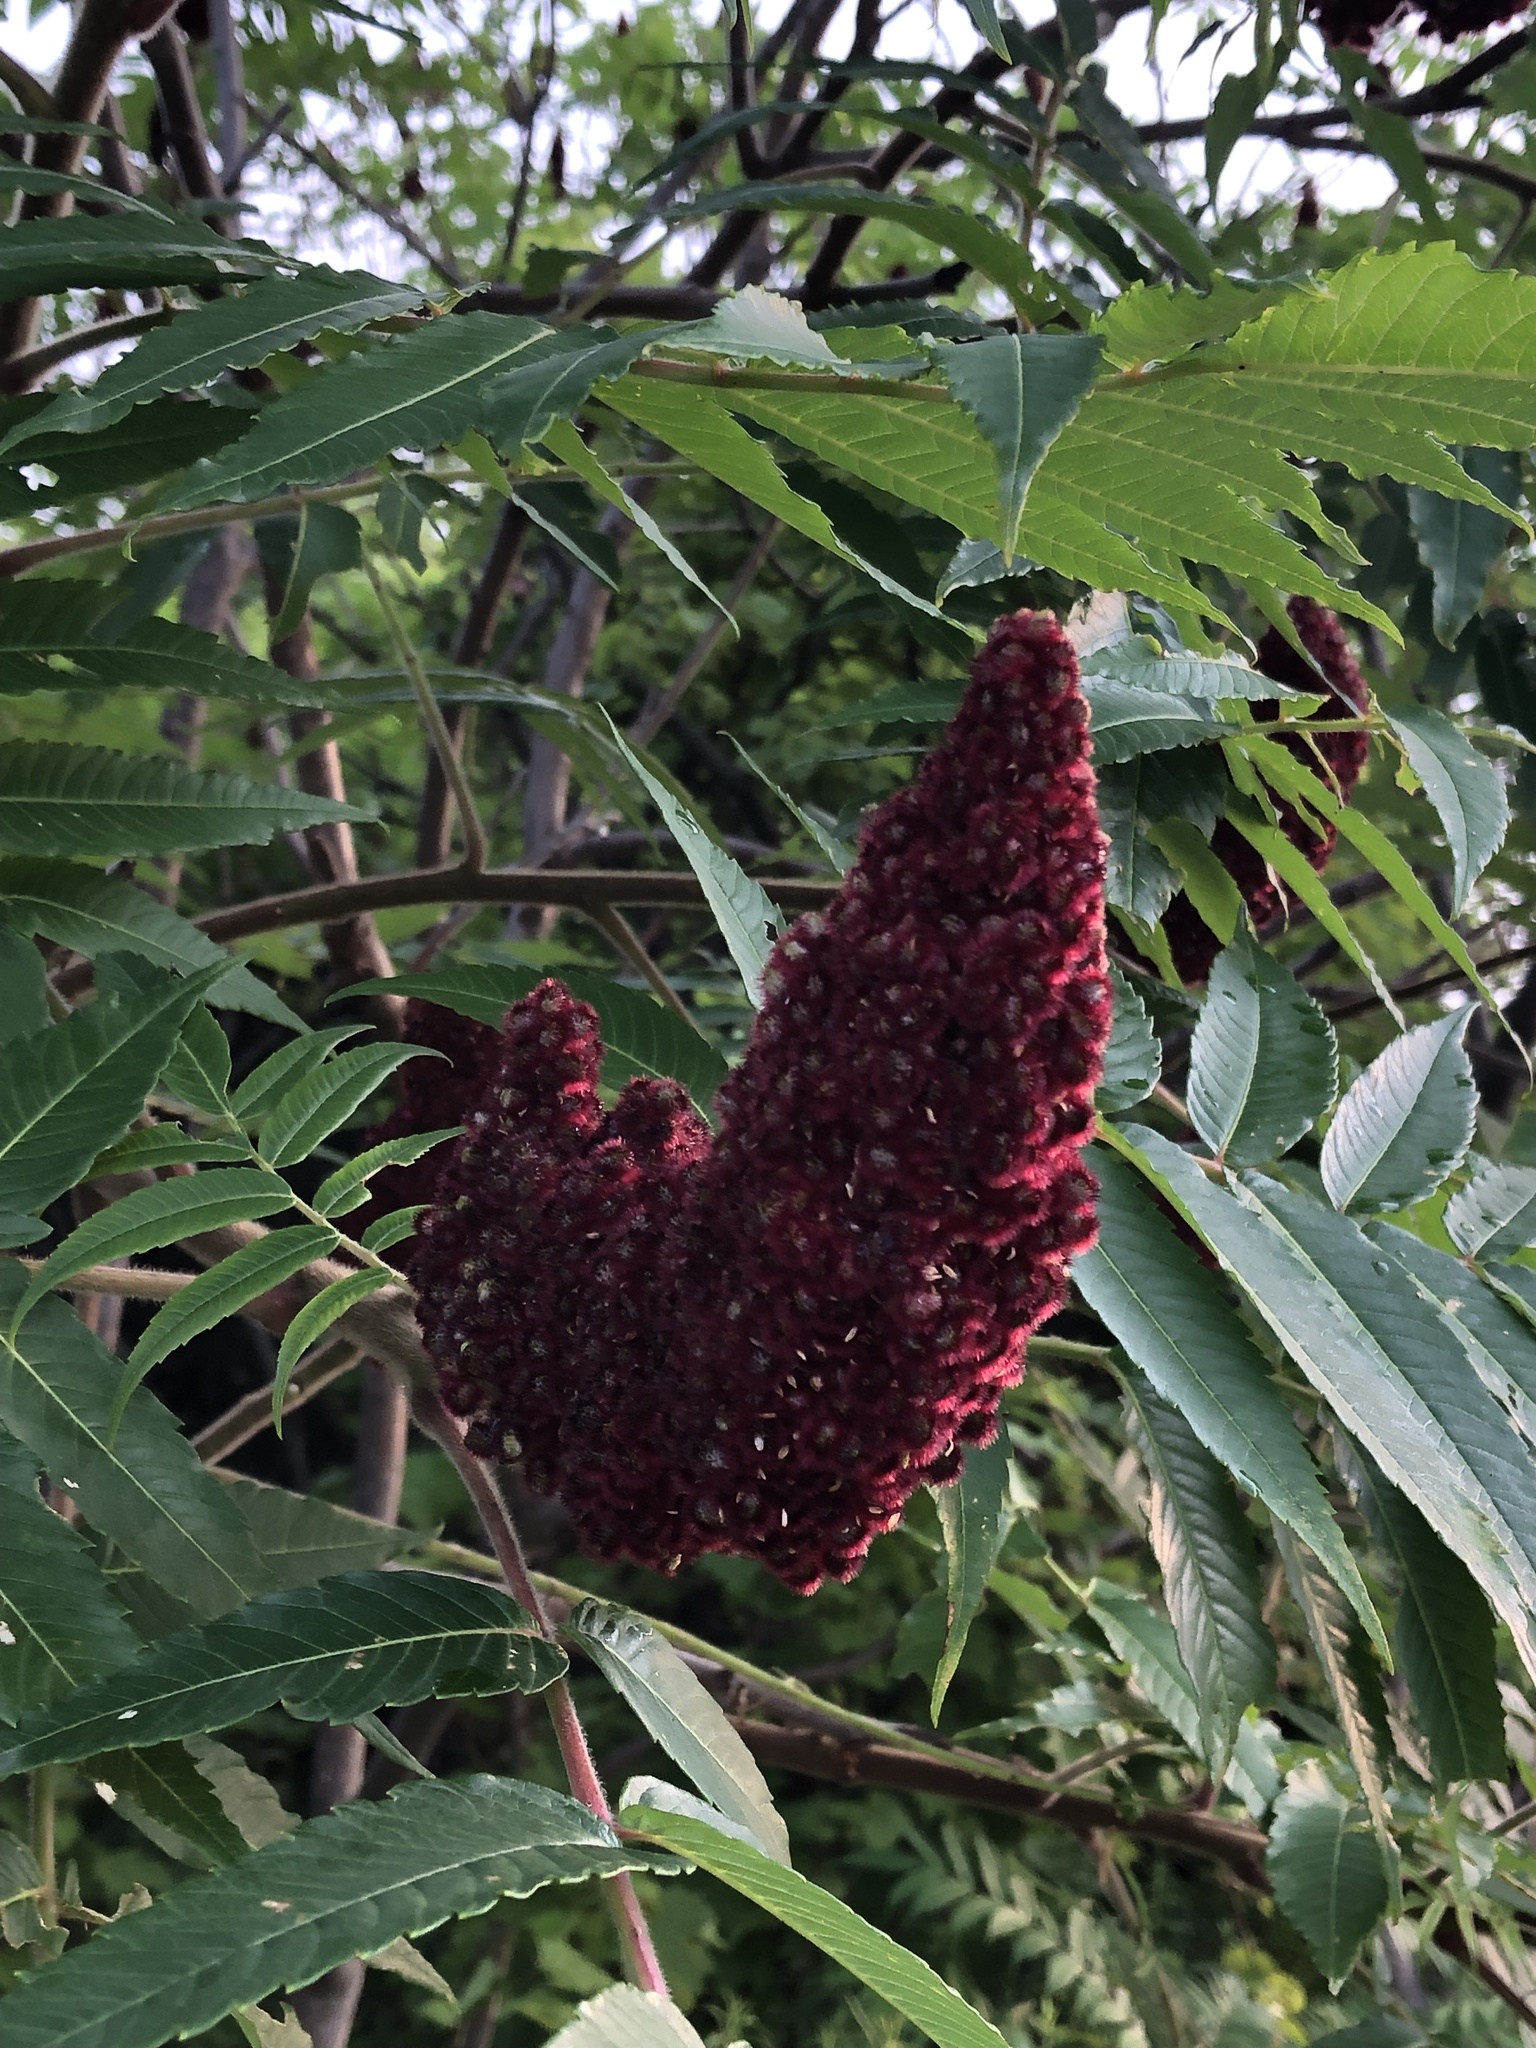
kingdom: Plantae
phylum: Tracheophyta
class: Magnoliopsida
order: Sapindales
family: Anacardiaceae
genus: Rhus
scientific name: Rhus typhina
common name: Staghorn sumac
